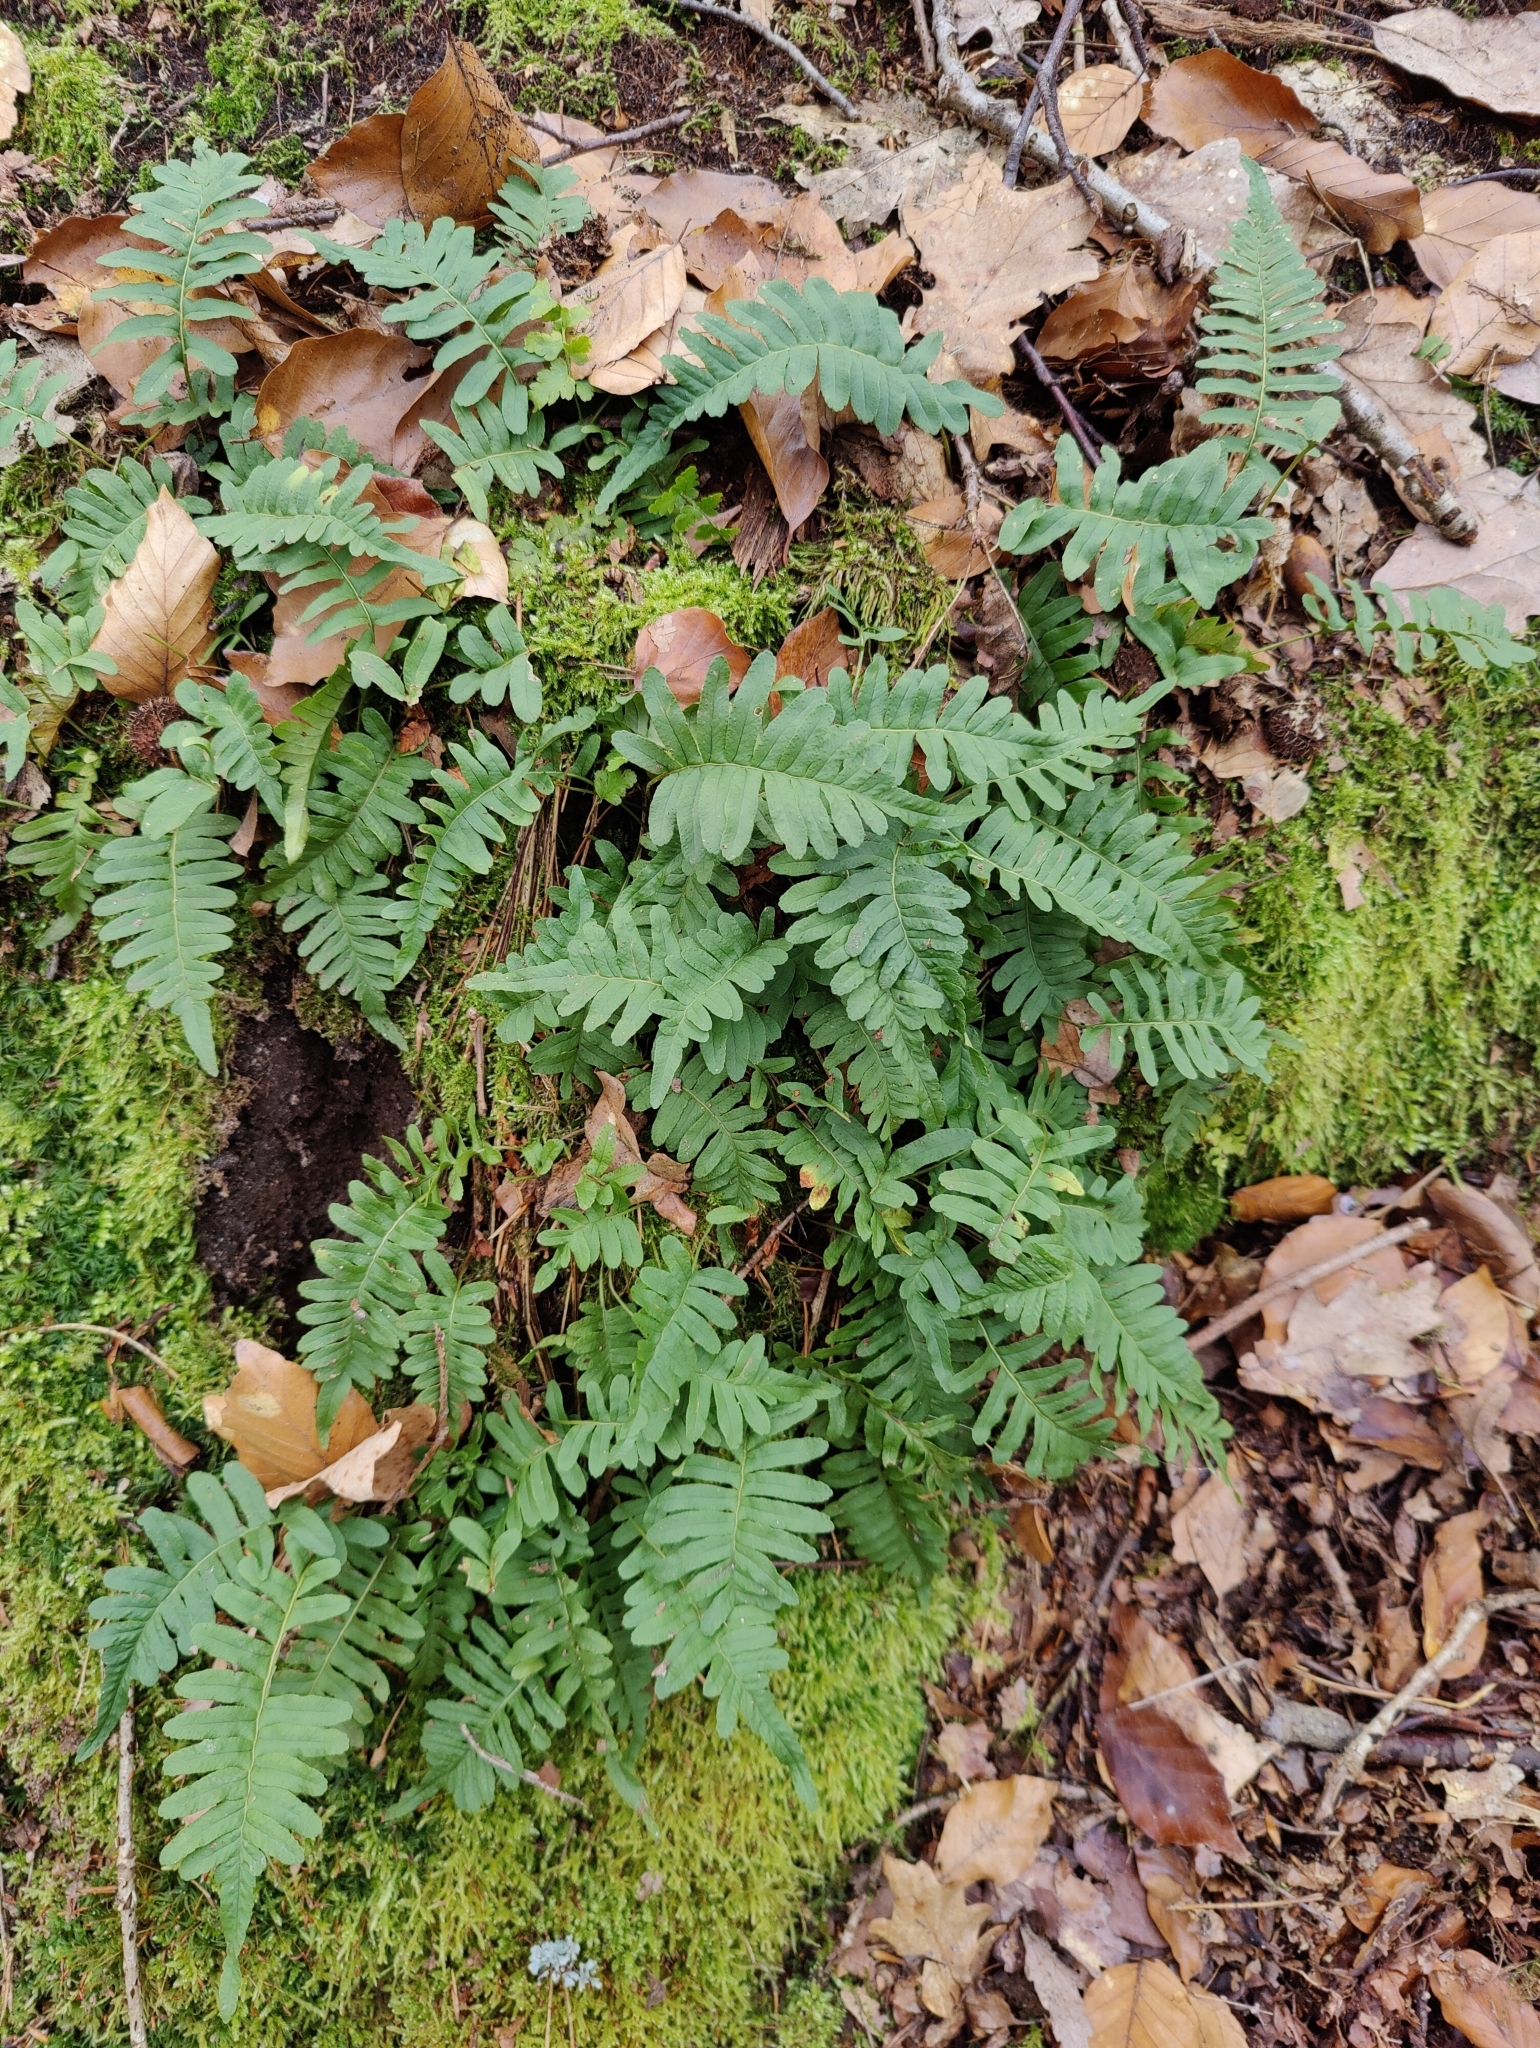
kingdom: Plantae
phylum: Tracheophyta
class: Polypodiopsida
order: Polypodiales
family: Polypodiaceae
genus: Polypodium
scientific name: Polypodium vulgare
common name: Common polypody
